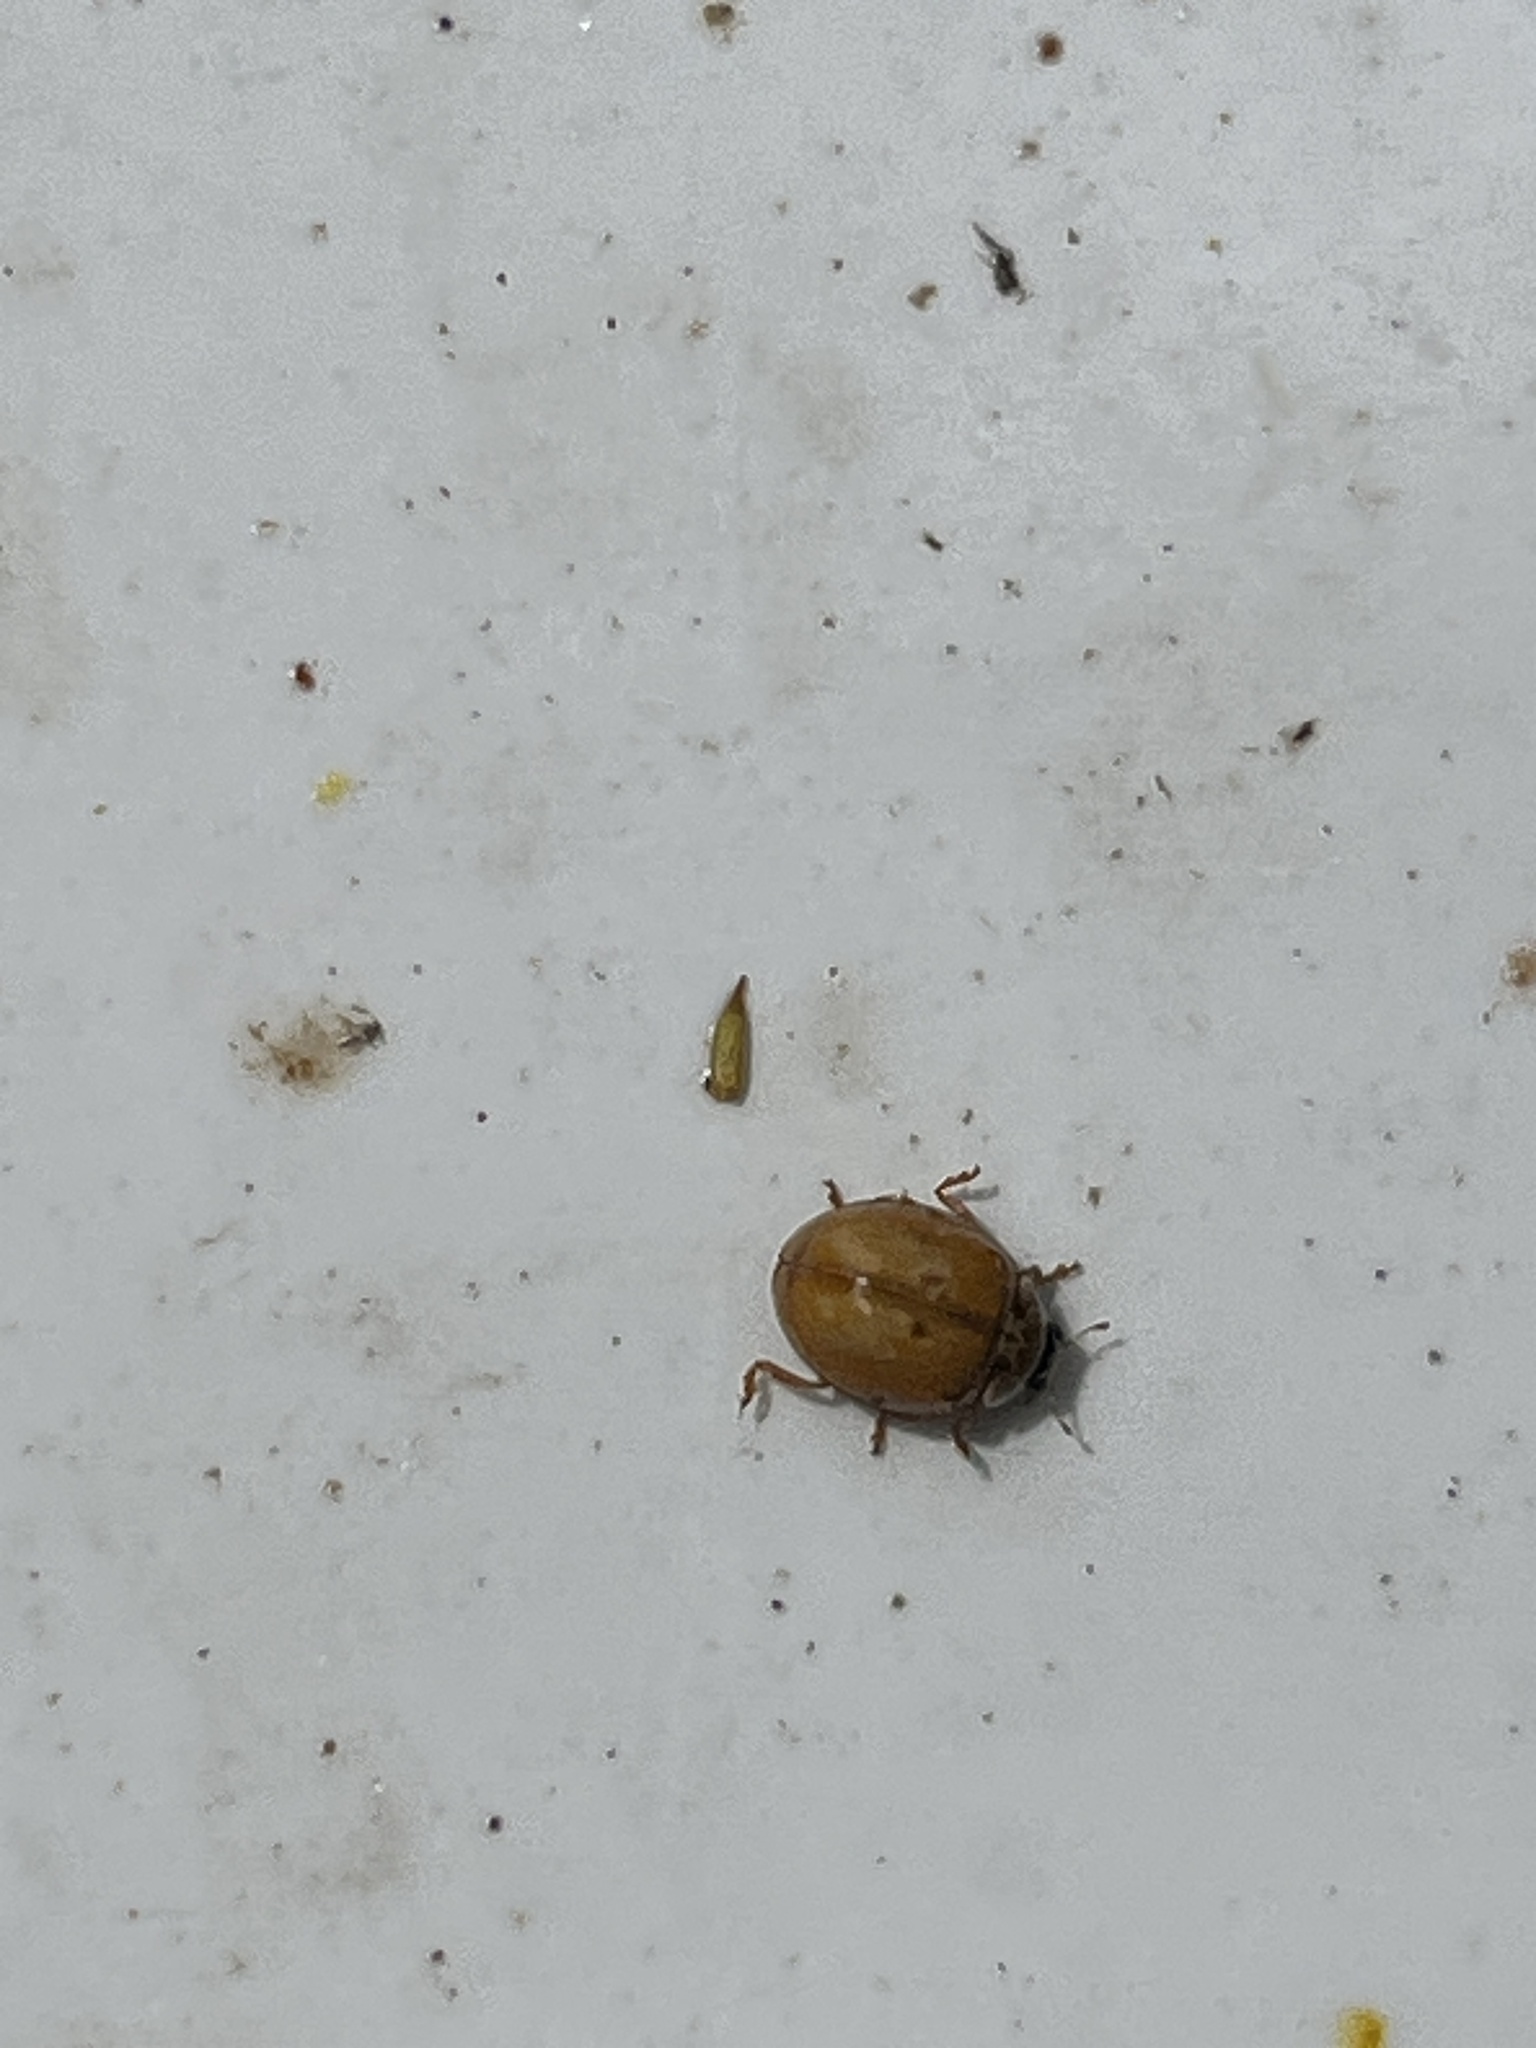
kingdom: Animalia
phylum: Arthropoda
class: Insecta
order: Coleoptera
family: Coccinellidae
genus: Adalia
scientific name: Adalia decempunctata
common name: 10-spot ladybird
